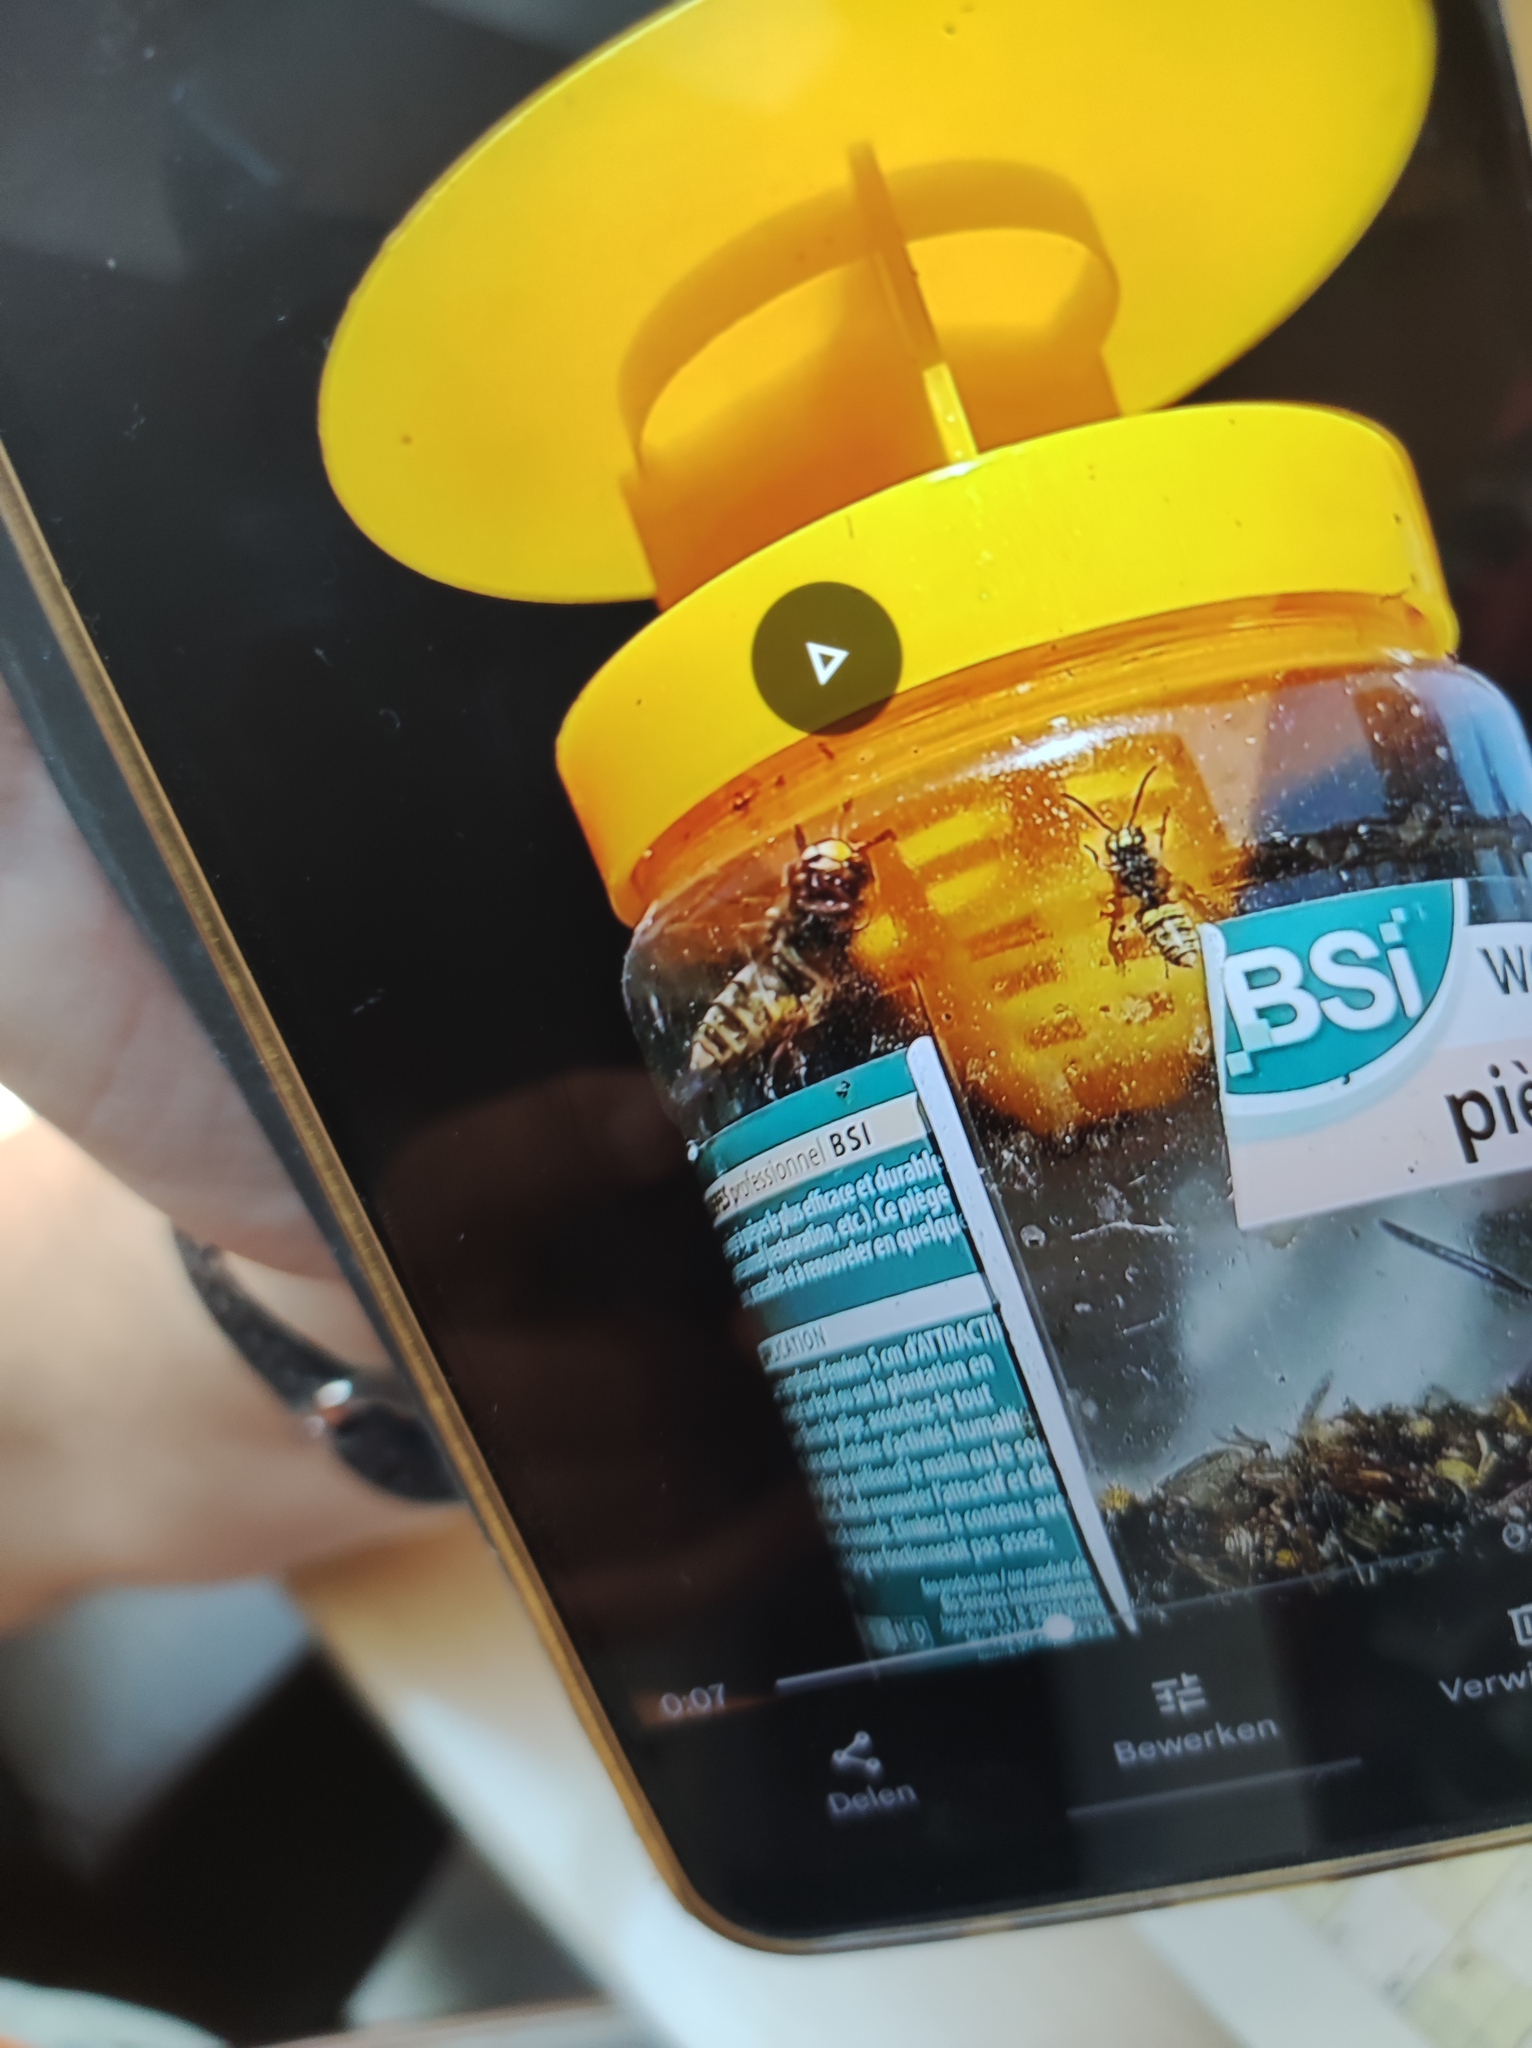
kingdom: Animalia
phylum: Arthropoda
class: Insecta
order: Hymenoptera
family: Vespidae
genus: Vespa
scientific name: Vespa crabro
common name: Hornet
